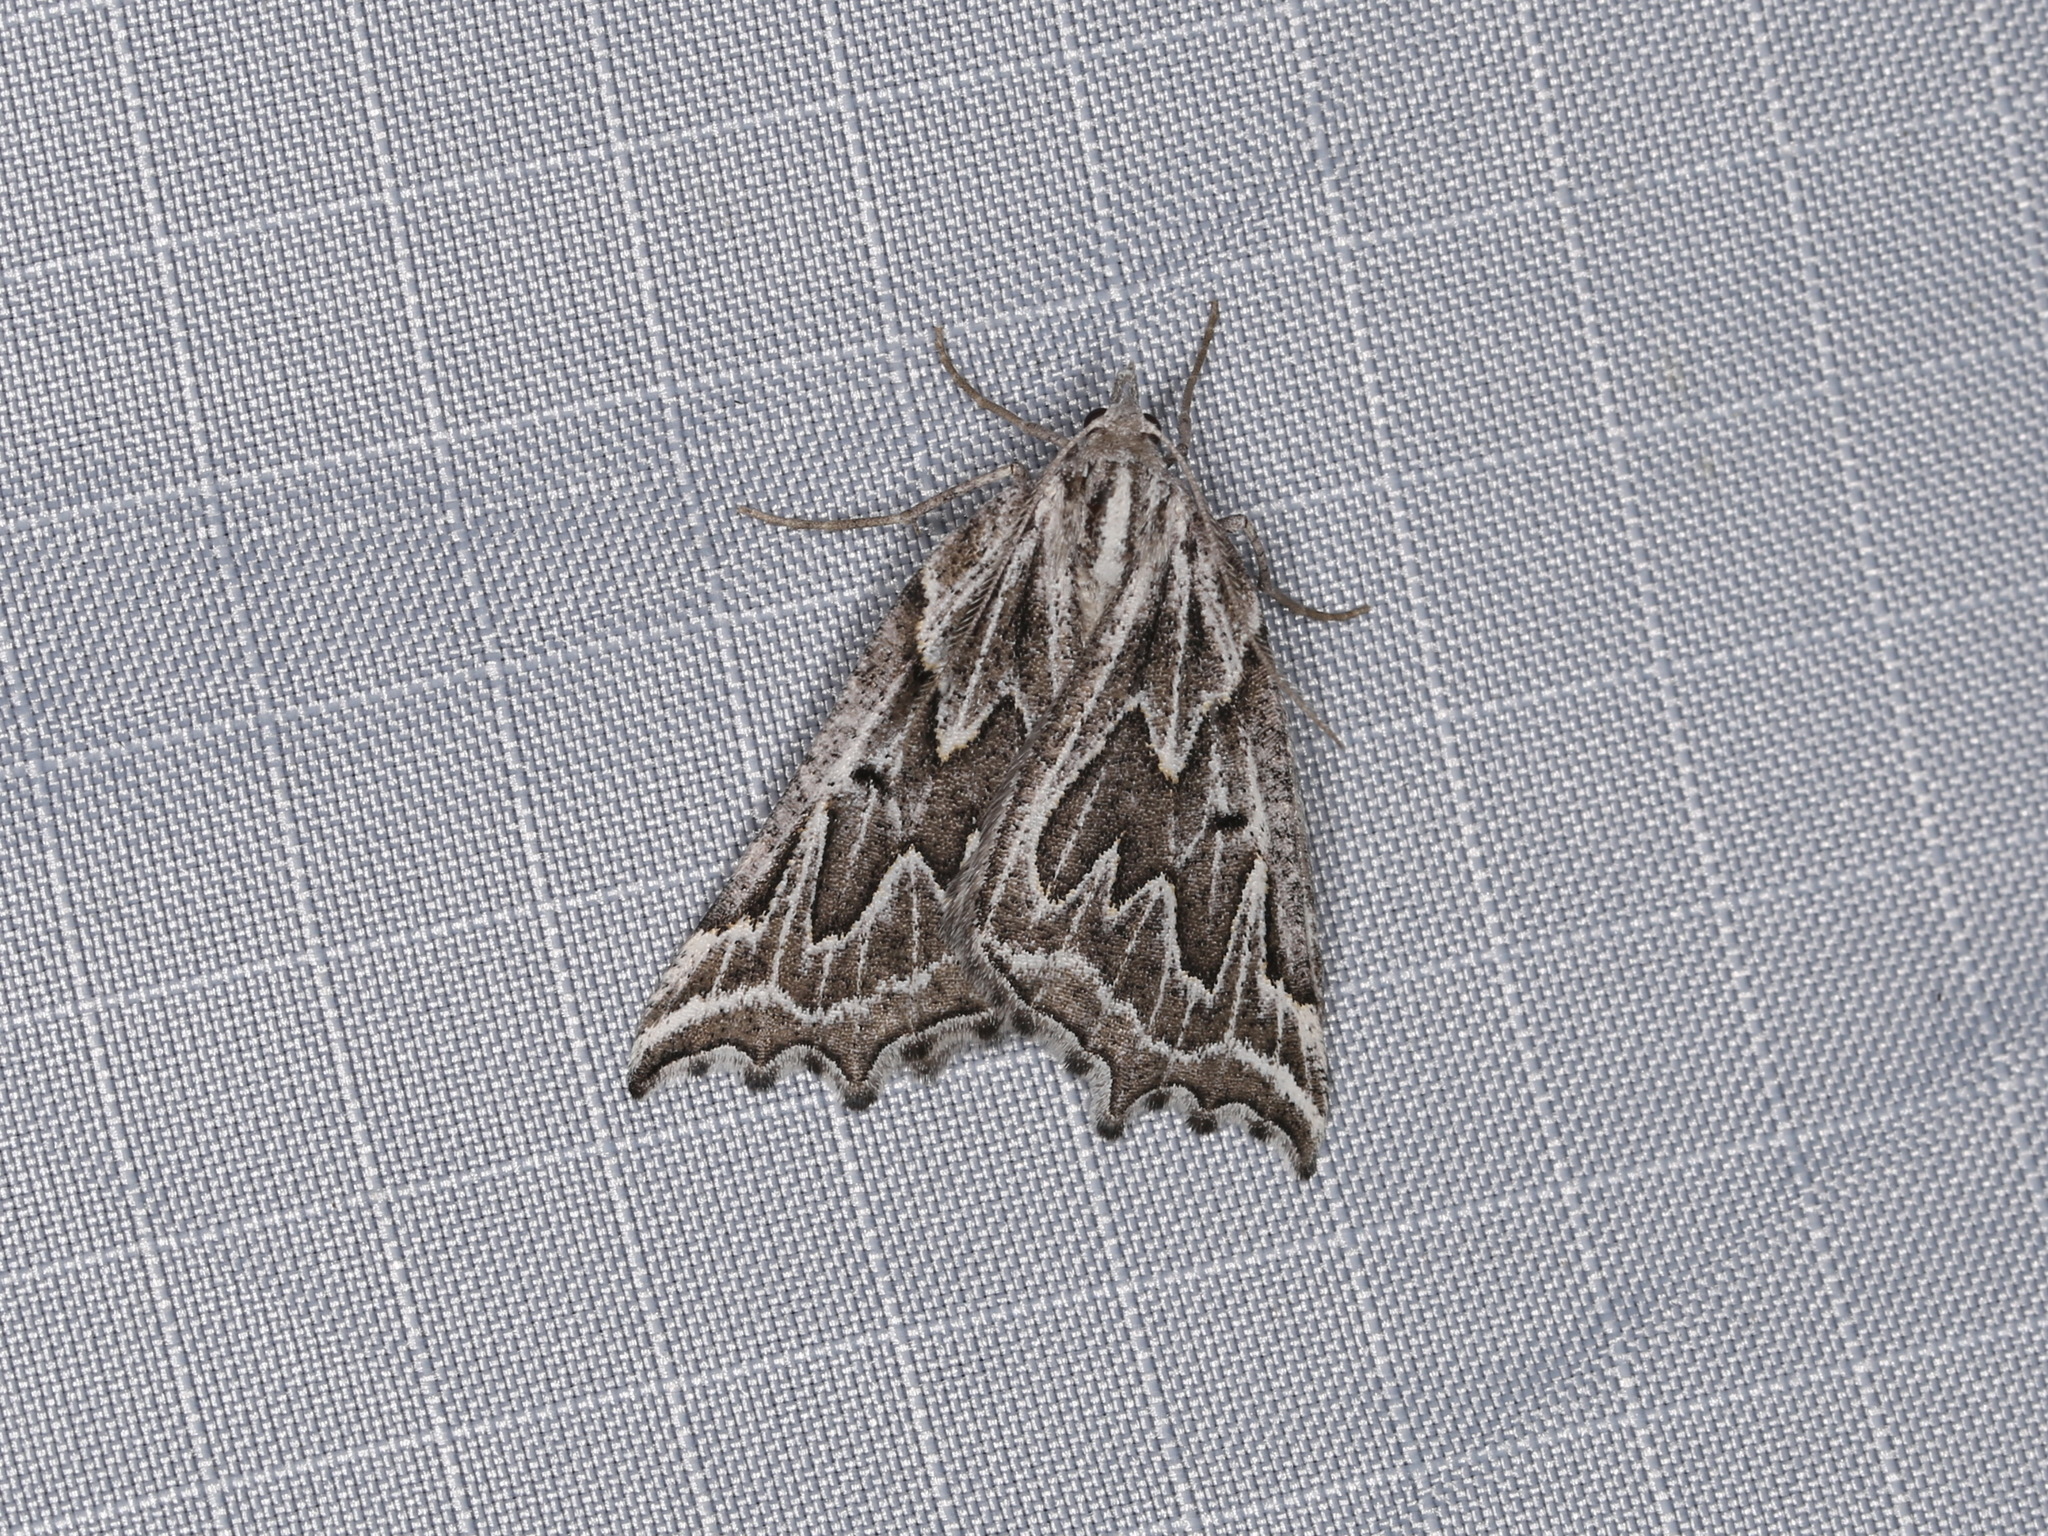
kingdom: Animalia
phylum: Arthropoda
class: Insecta
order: Lepidoptera
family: Geometridae
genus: Plataea
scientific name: Plataea personaria
